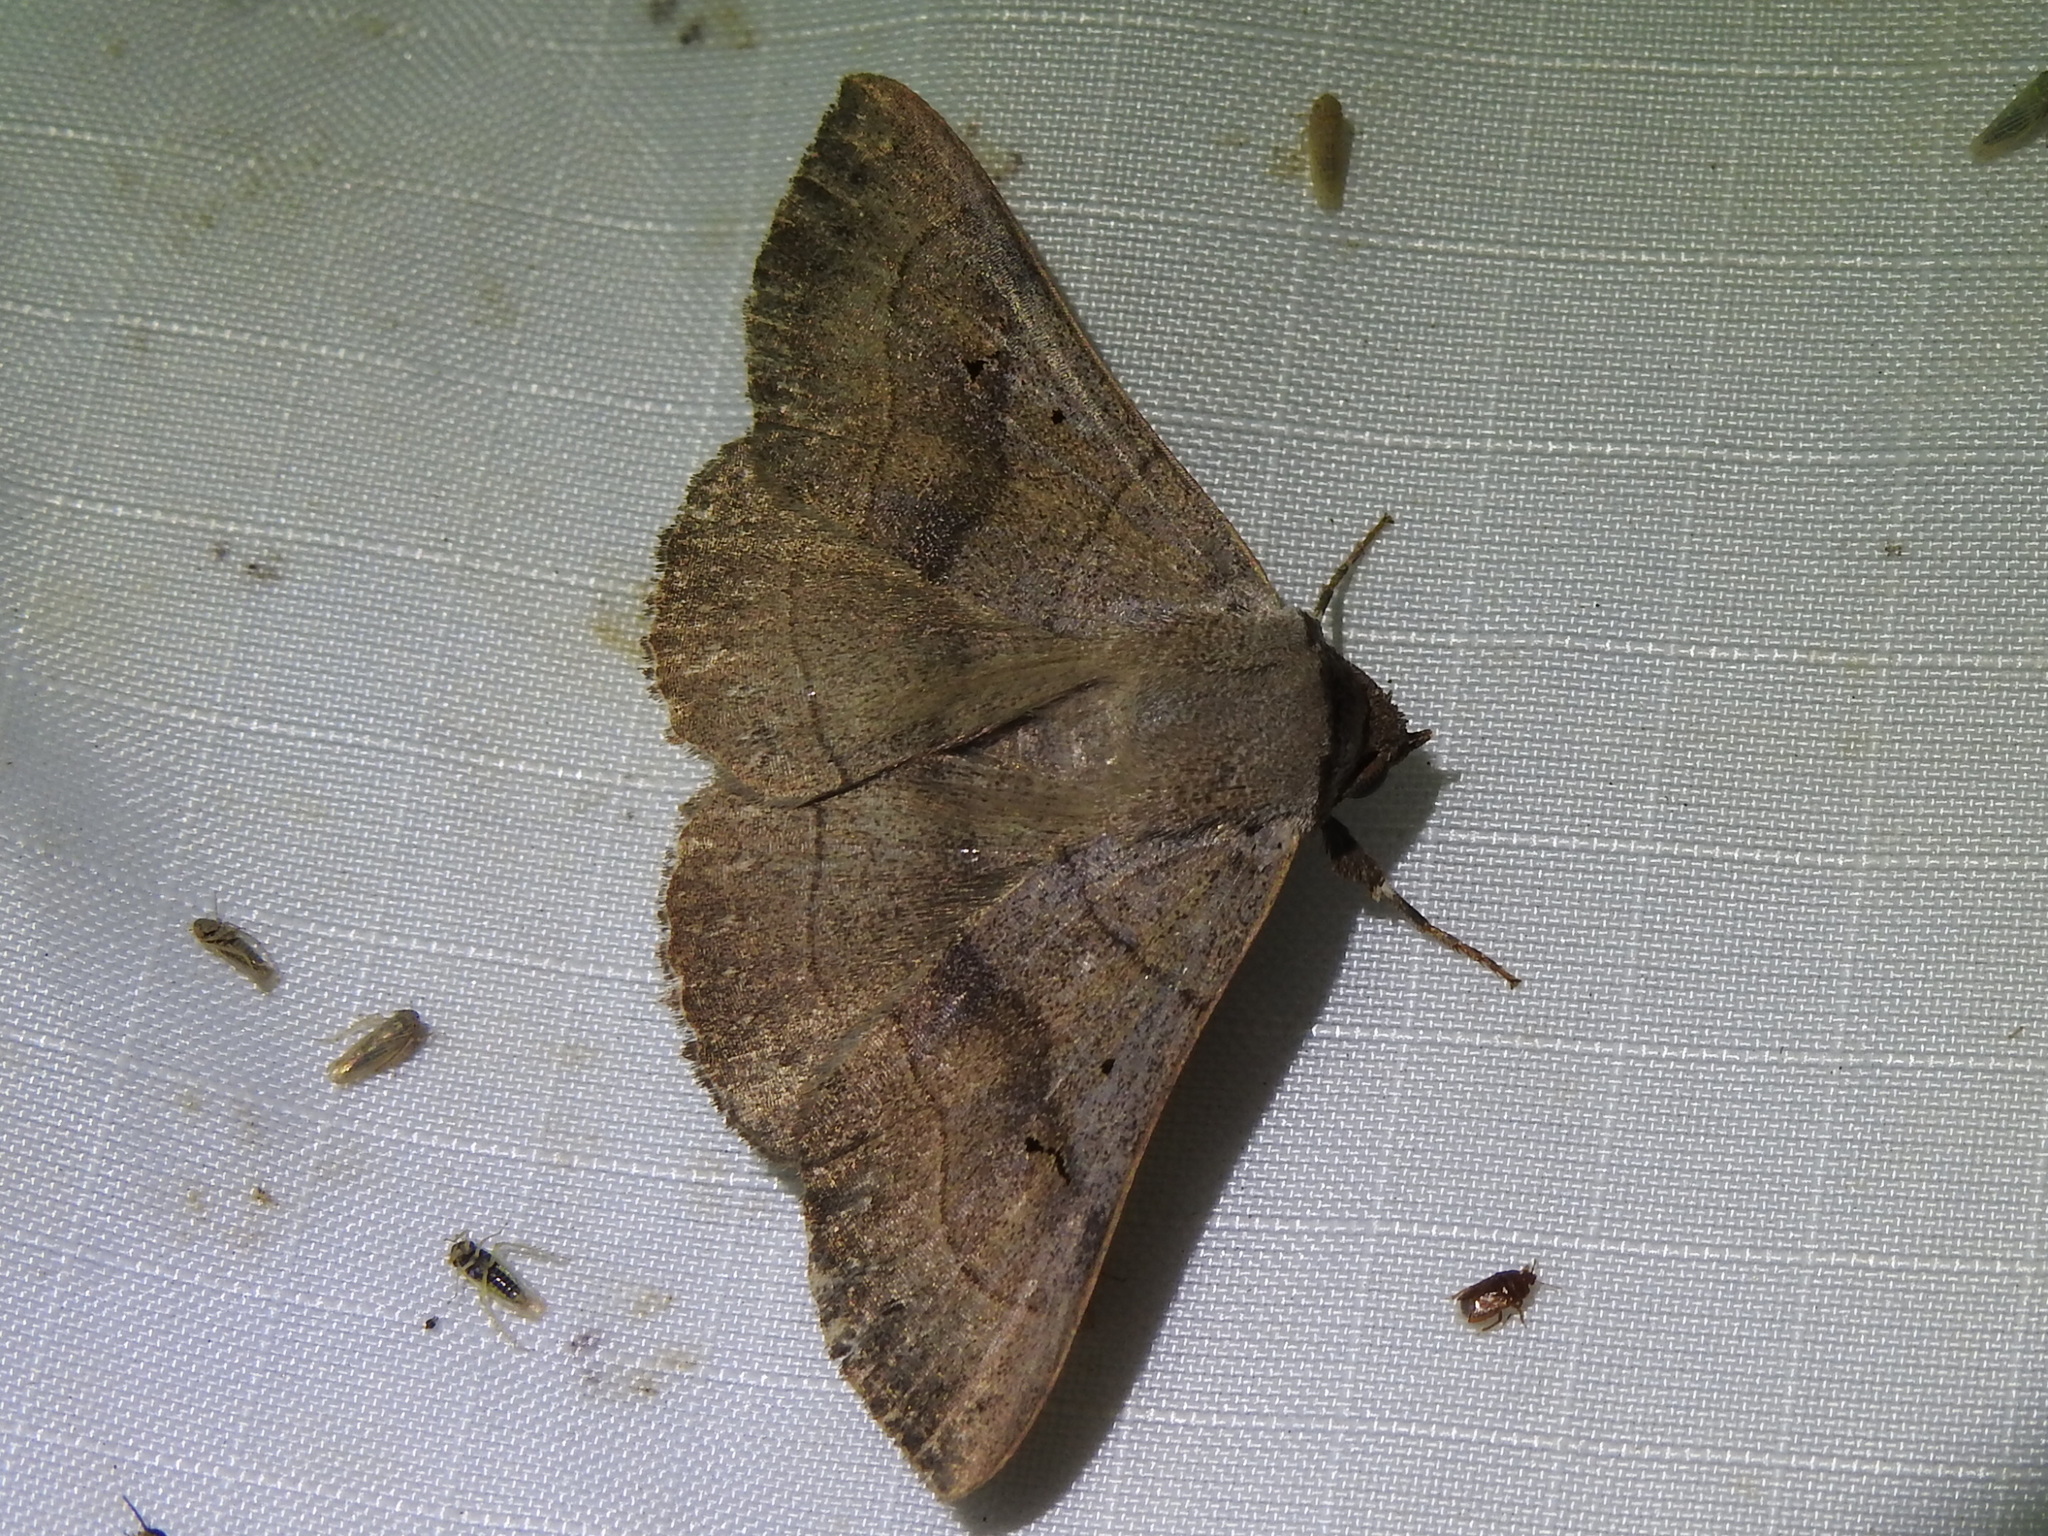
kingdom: Animalia
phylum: Arthropoda
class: Insecta
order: Lepidoptera
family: Erebidae
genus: Panopoda
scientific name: Panopoda carneicosta
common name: Brown panopoda moth
